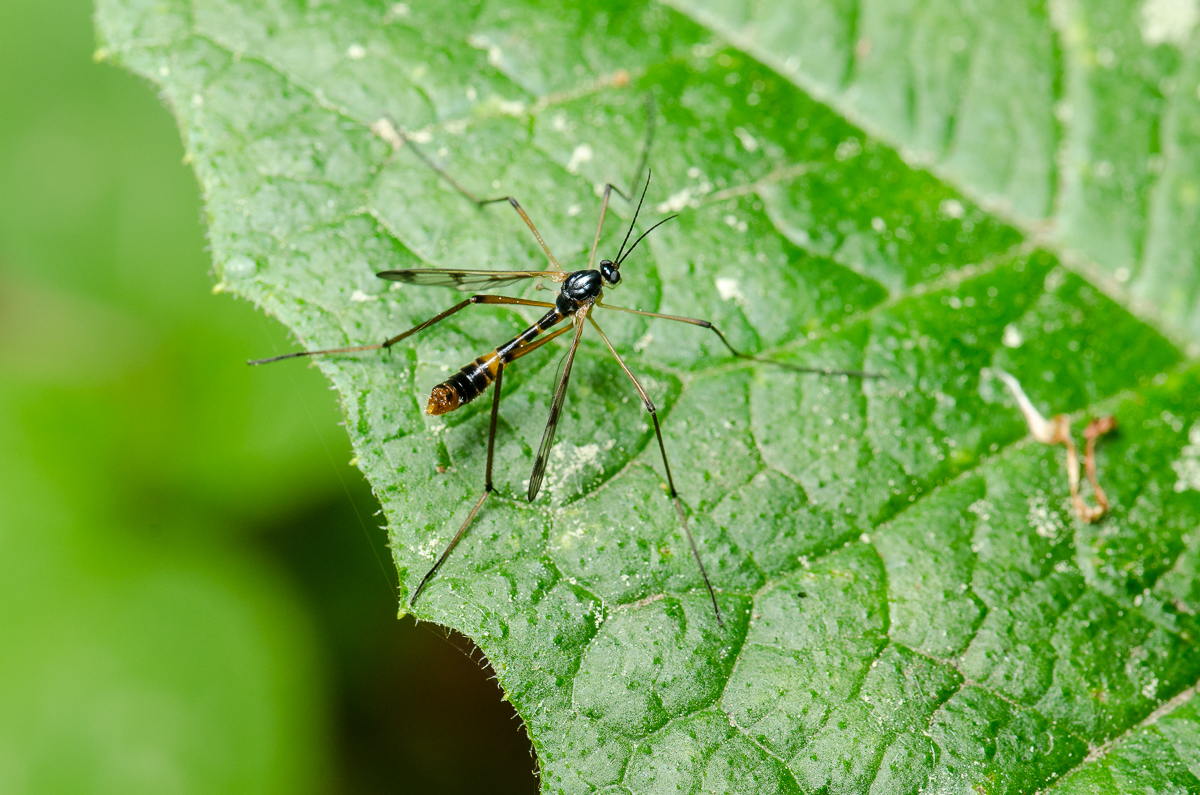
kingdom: Animalia
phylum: Arthropoda
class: Insecta
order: Diptera
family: Ptychopteridae
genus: Ptychoptera
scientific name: Ptychoptera quadrifasciata
